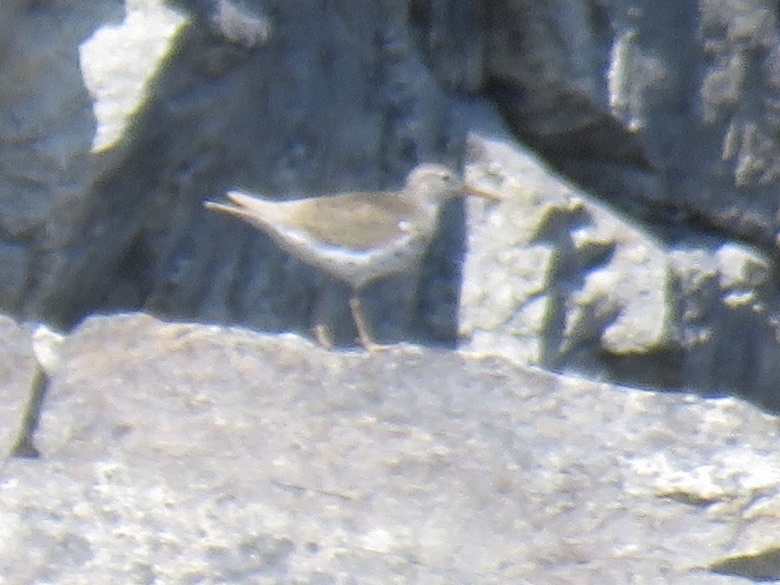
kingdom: Animalia
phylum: Chordata
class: Aves
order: Charadriiformes
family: Scolopacidae
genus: Actitis
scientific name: Actitis macularius
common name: Spotted sandpiper
